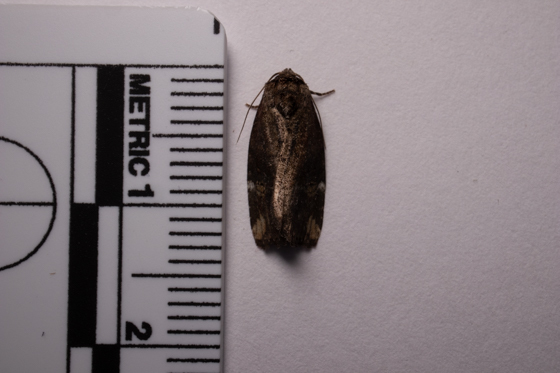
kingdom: Animalia
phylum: Arthropoda
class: Insecta
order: Lepidoptera
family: Noctuidae
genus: Elaphria
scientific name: Elaphria versicolor
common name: Fir harlequin
